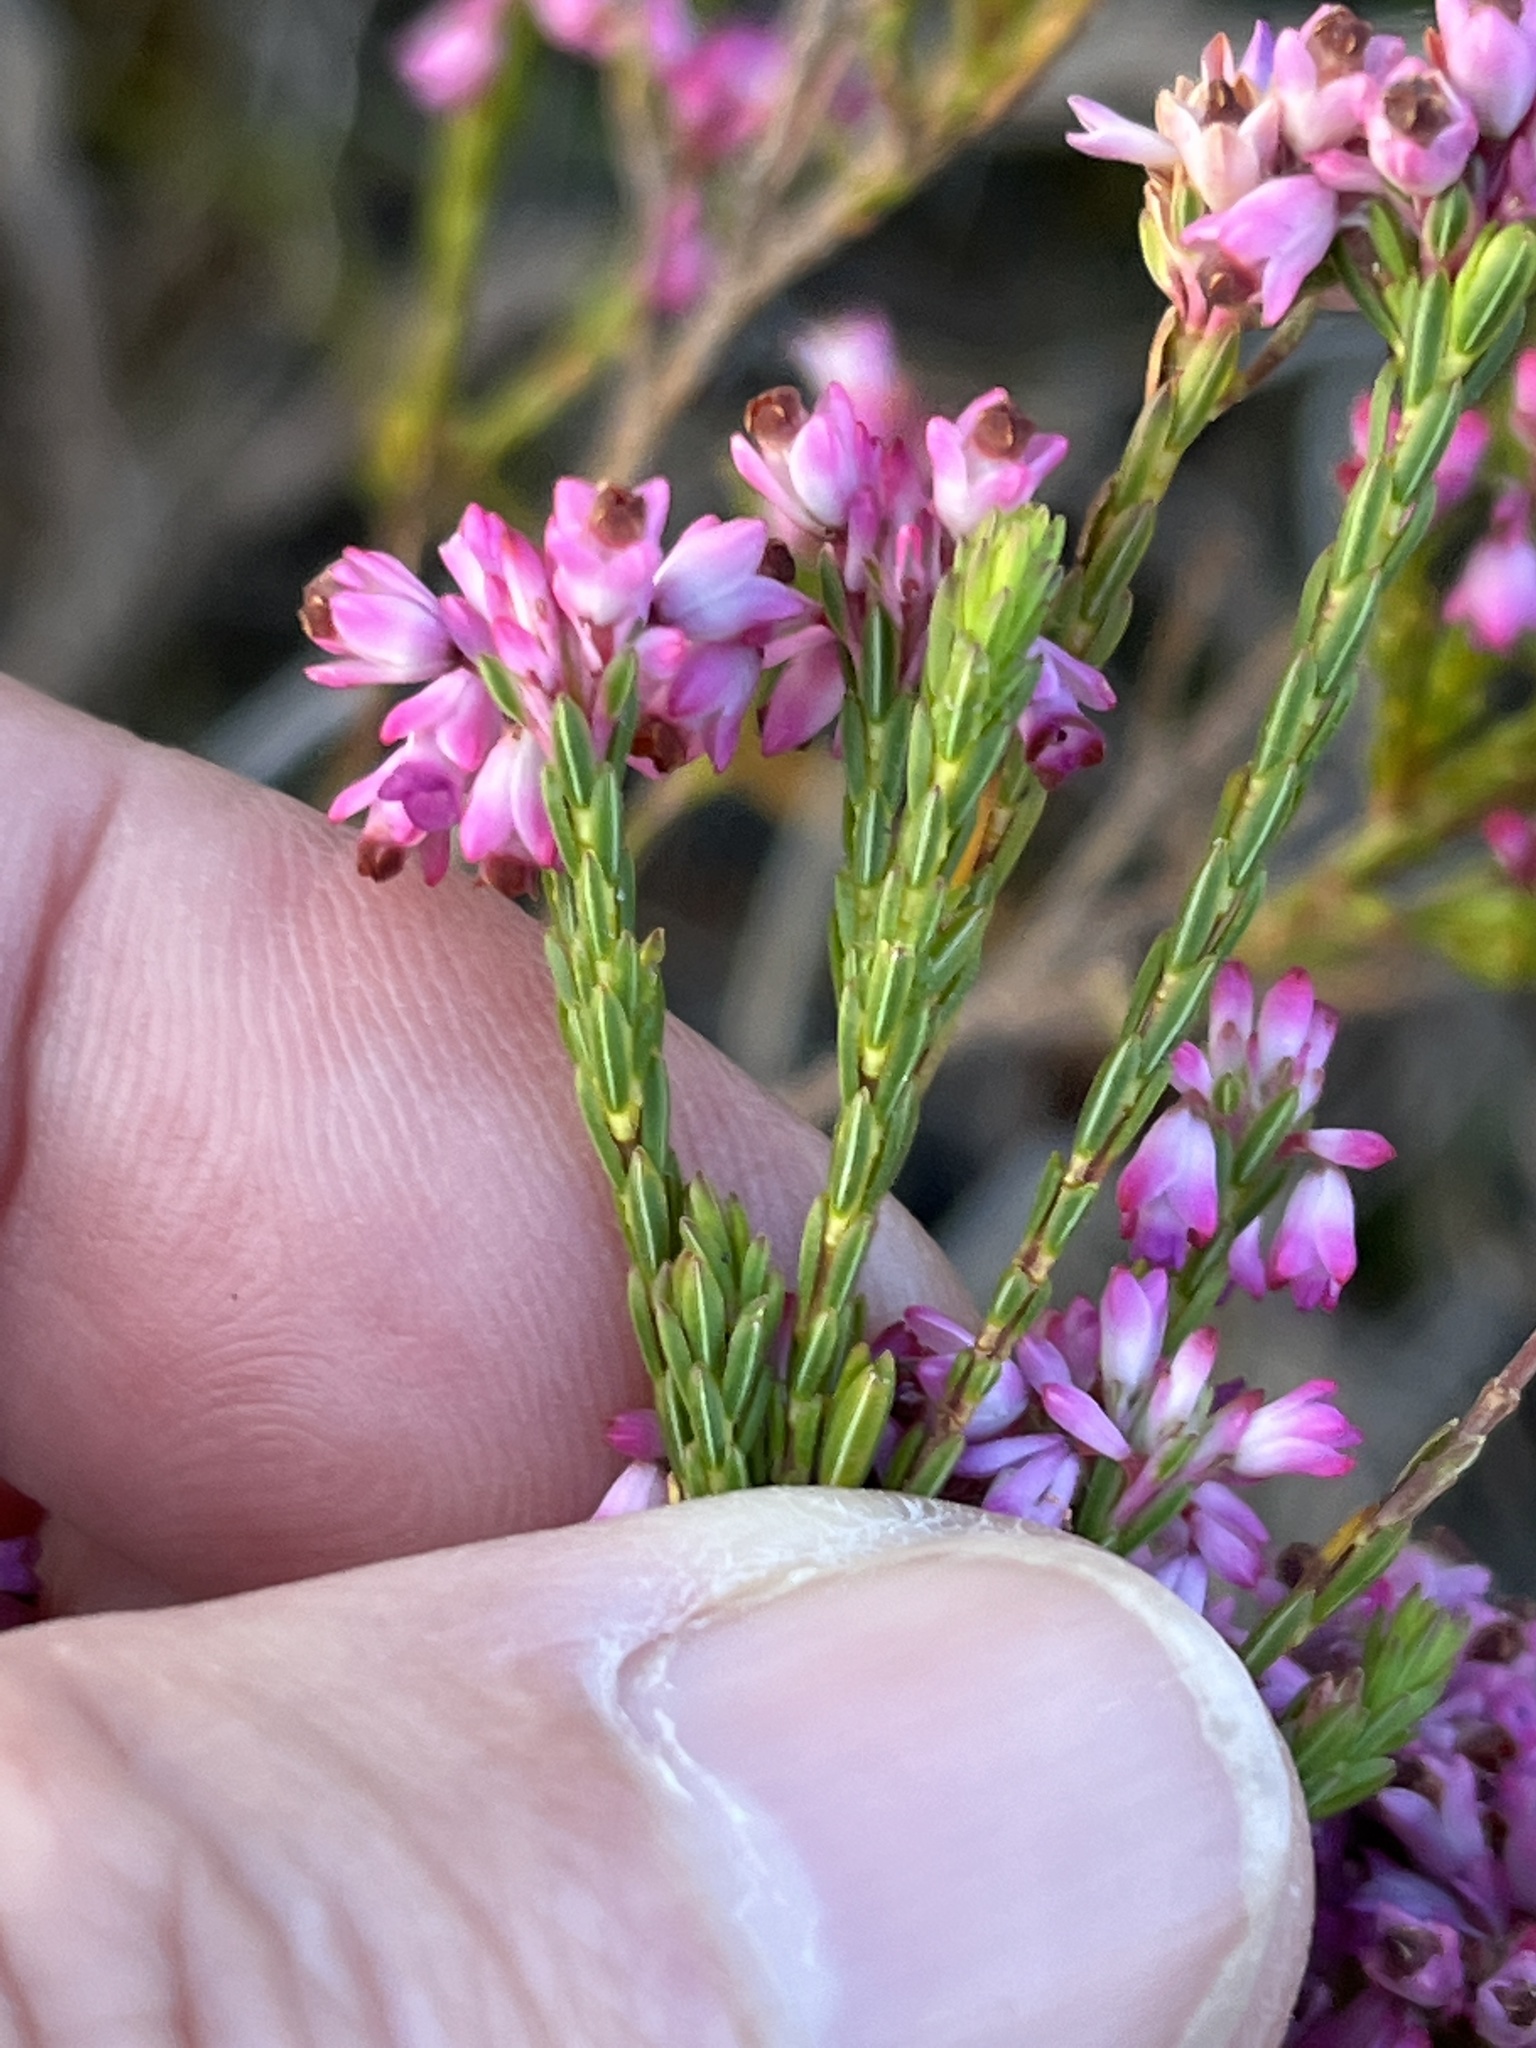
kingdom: Plantae
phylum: Tracheophyta
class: Magnoliopsida
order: Ericales
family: Ericaceae
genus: Erica
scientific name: Erica corifolia
